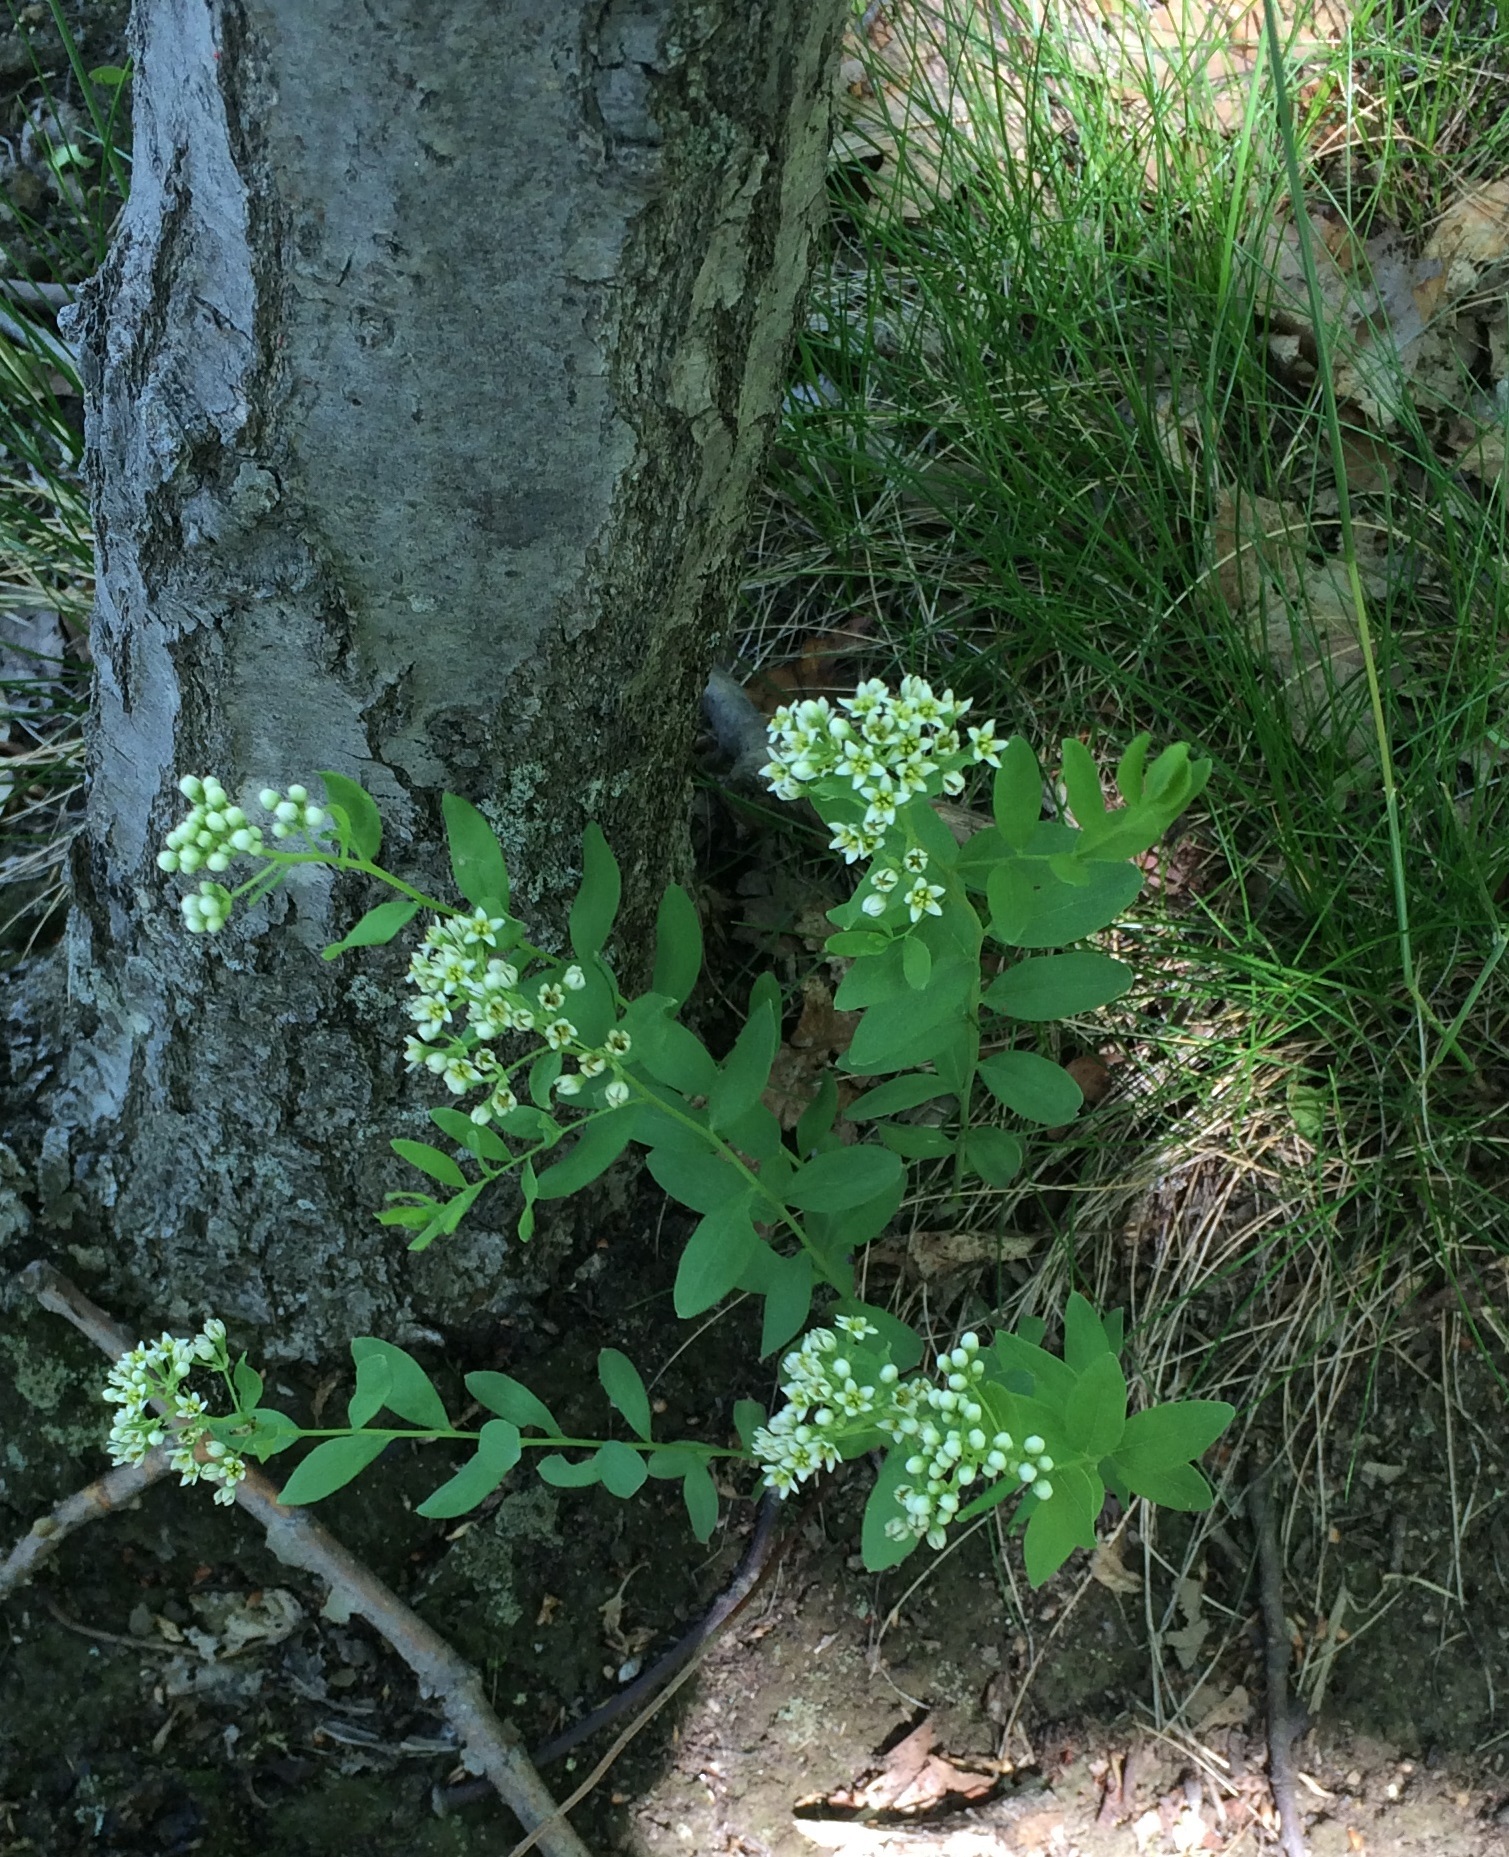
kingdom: Plantae
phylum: Tracheophyta
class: Magnoliopsida
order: Santalales
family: Comandraceae
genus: Comandra
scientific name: Comandra umbellata
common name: Bastard toadflax
